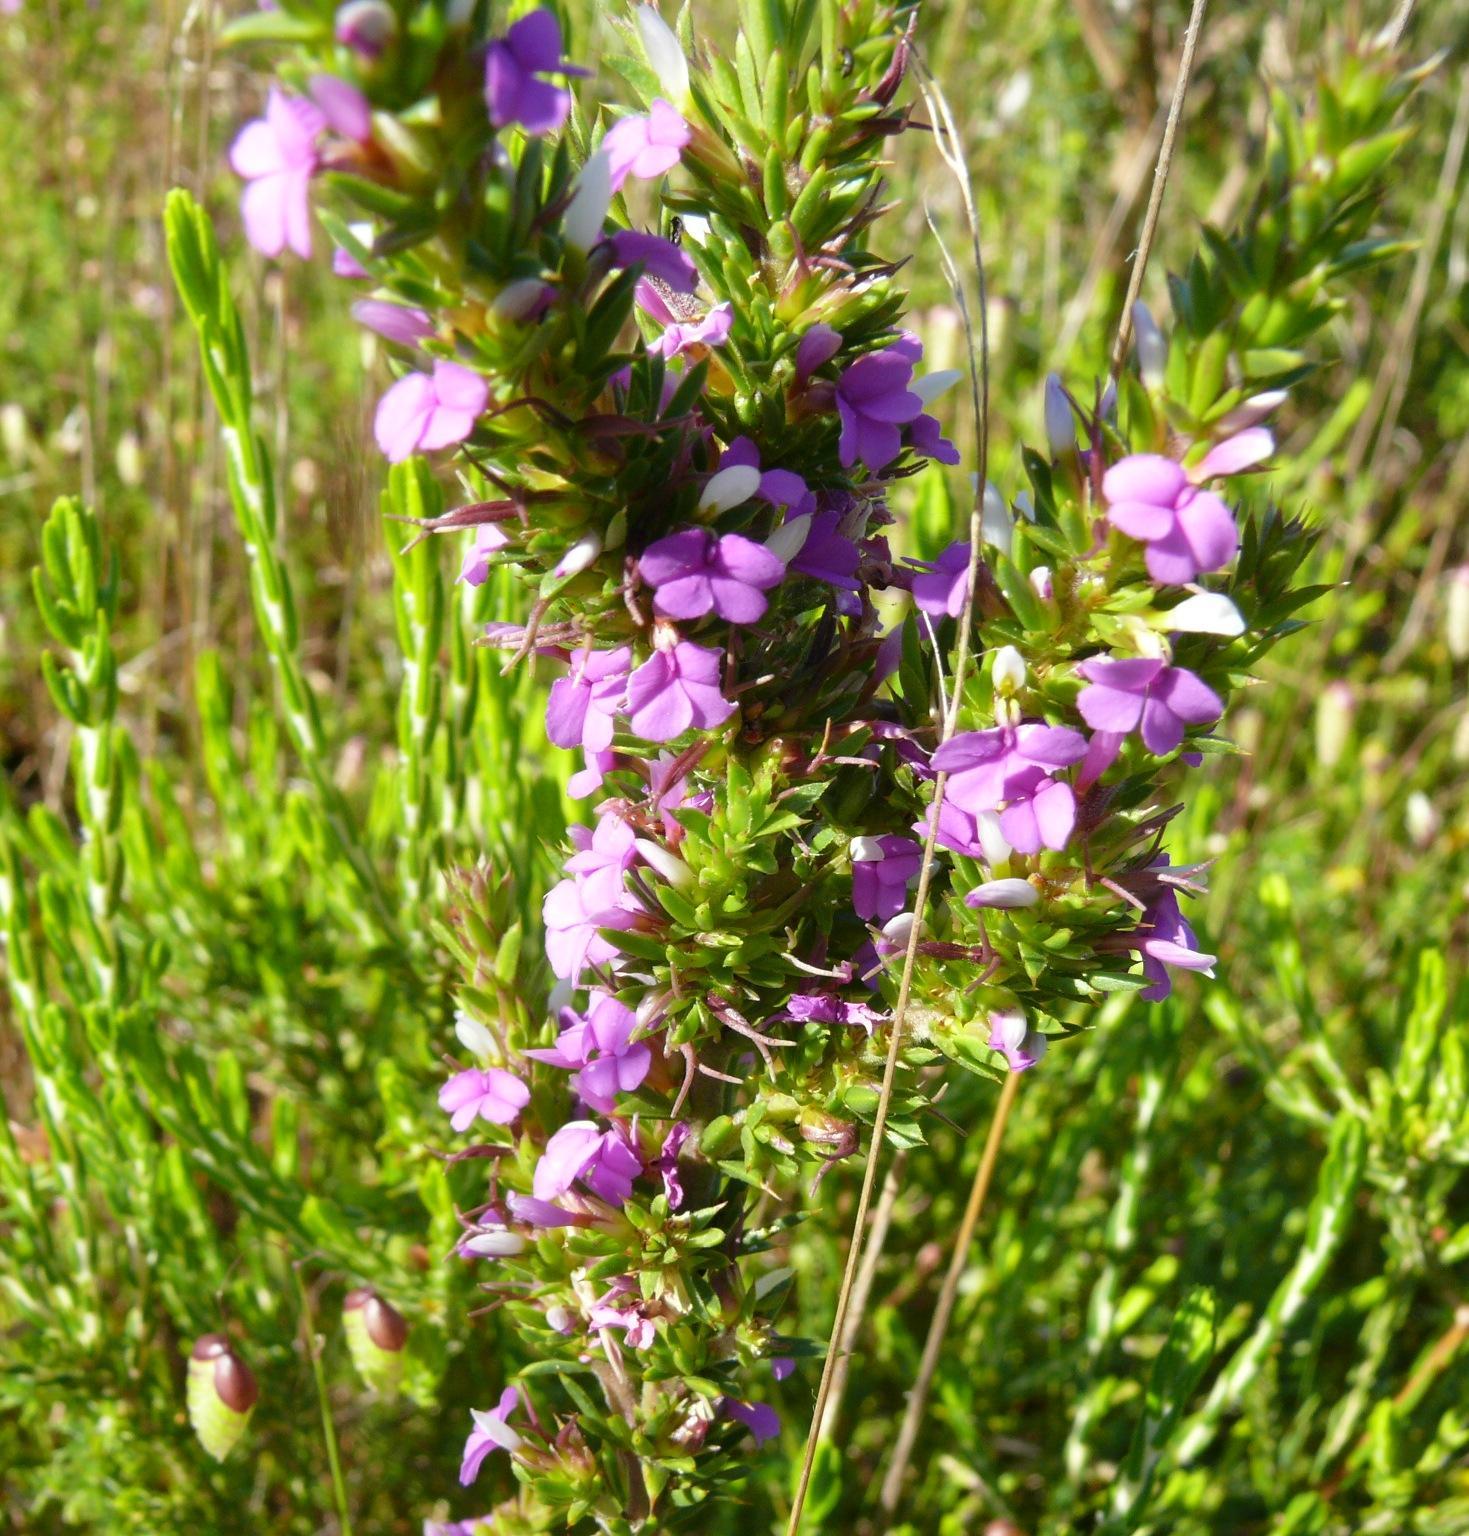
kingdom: Plantae
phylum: Tracheophyta
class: Magnoliopsida
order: Fabales
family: Polygalaceae
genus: Muraltia
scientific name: Muraltia heisteria
